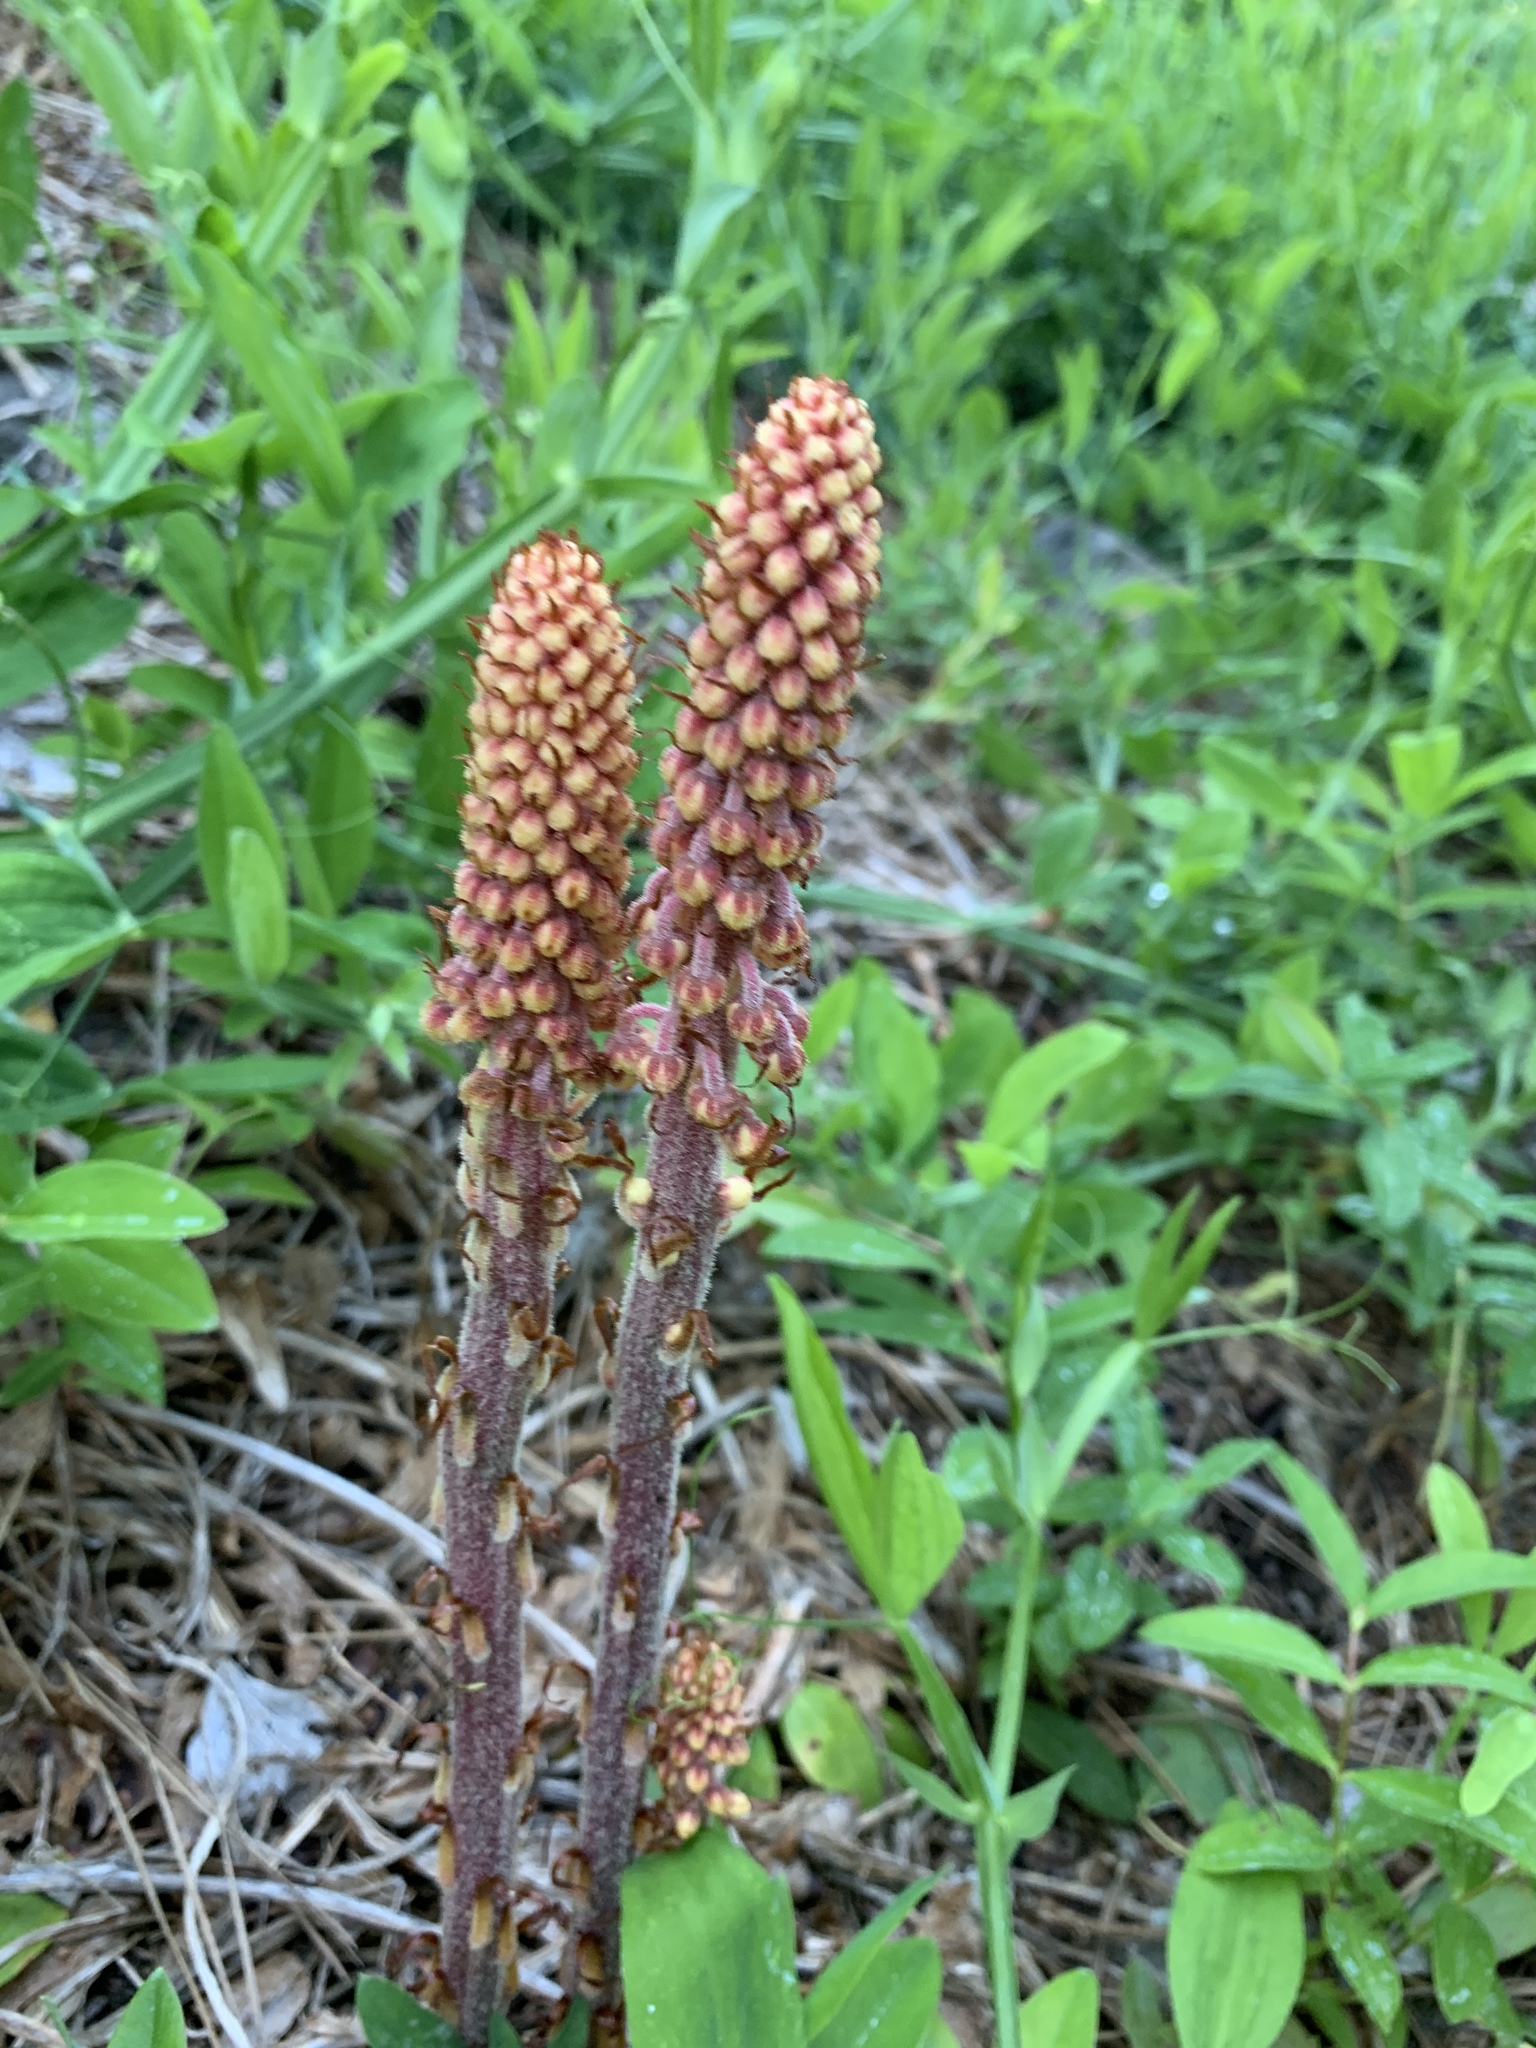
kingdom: Plantae
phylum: Tracheophyta
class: Magnoliopsida
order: Ericales
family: Ericaceae
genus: Pterospora
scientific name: Pterospora andromedea
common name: Giant bird's-nest
